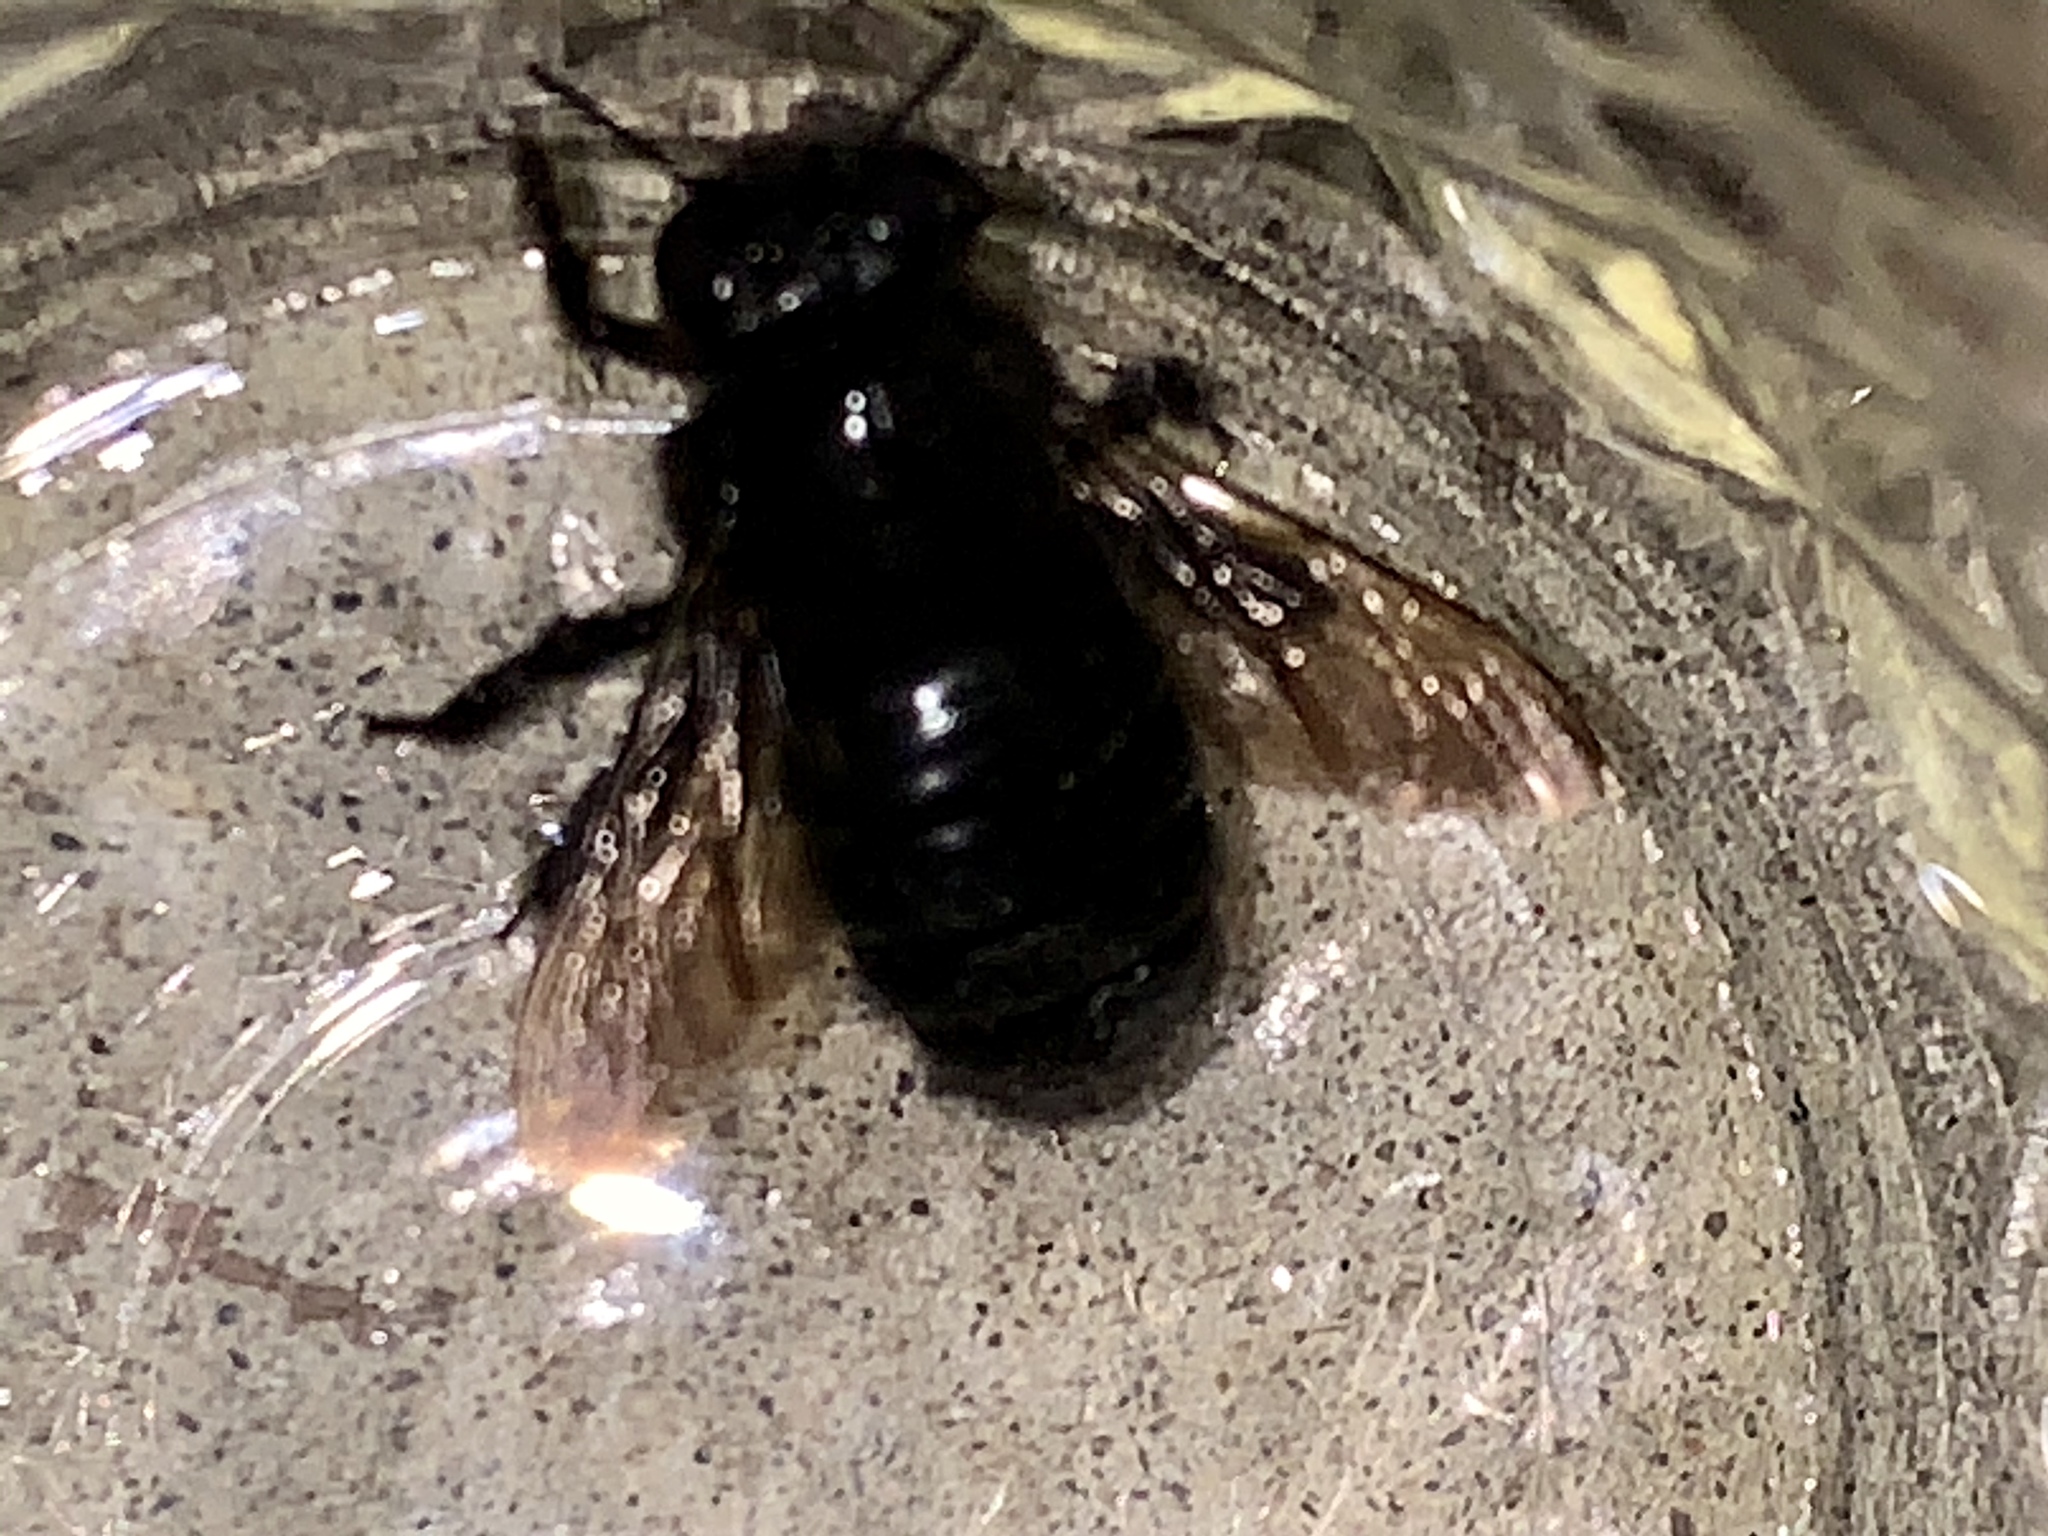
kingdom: Animalia
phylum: Arthropoda
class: Insecta
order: Hymenoptera
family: Apidae
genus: Xylocopa
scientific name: Xylocopa sonorina
